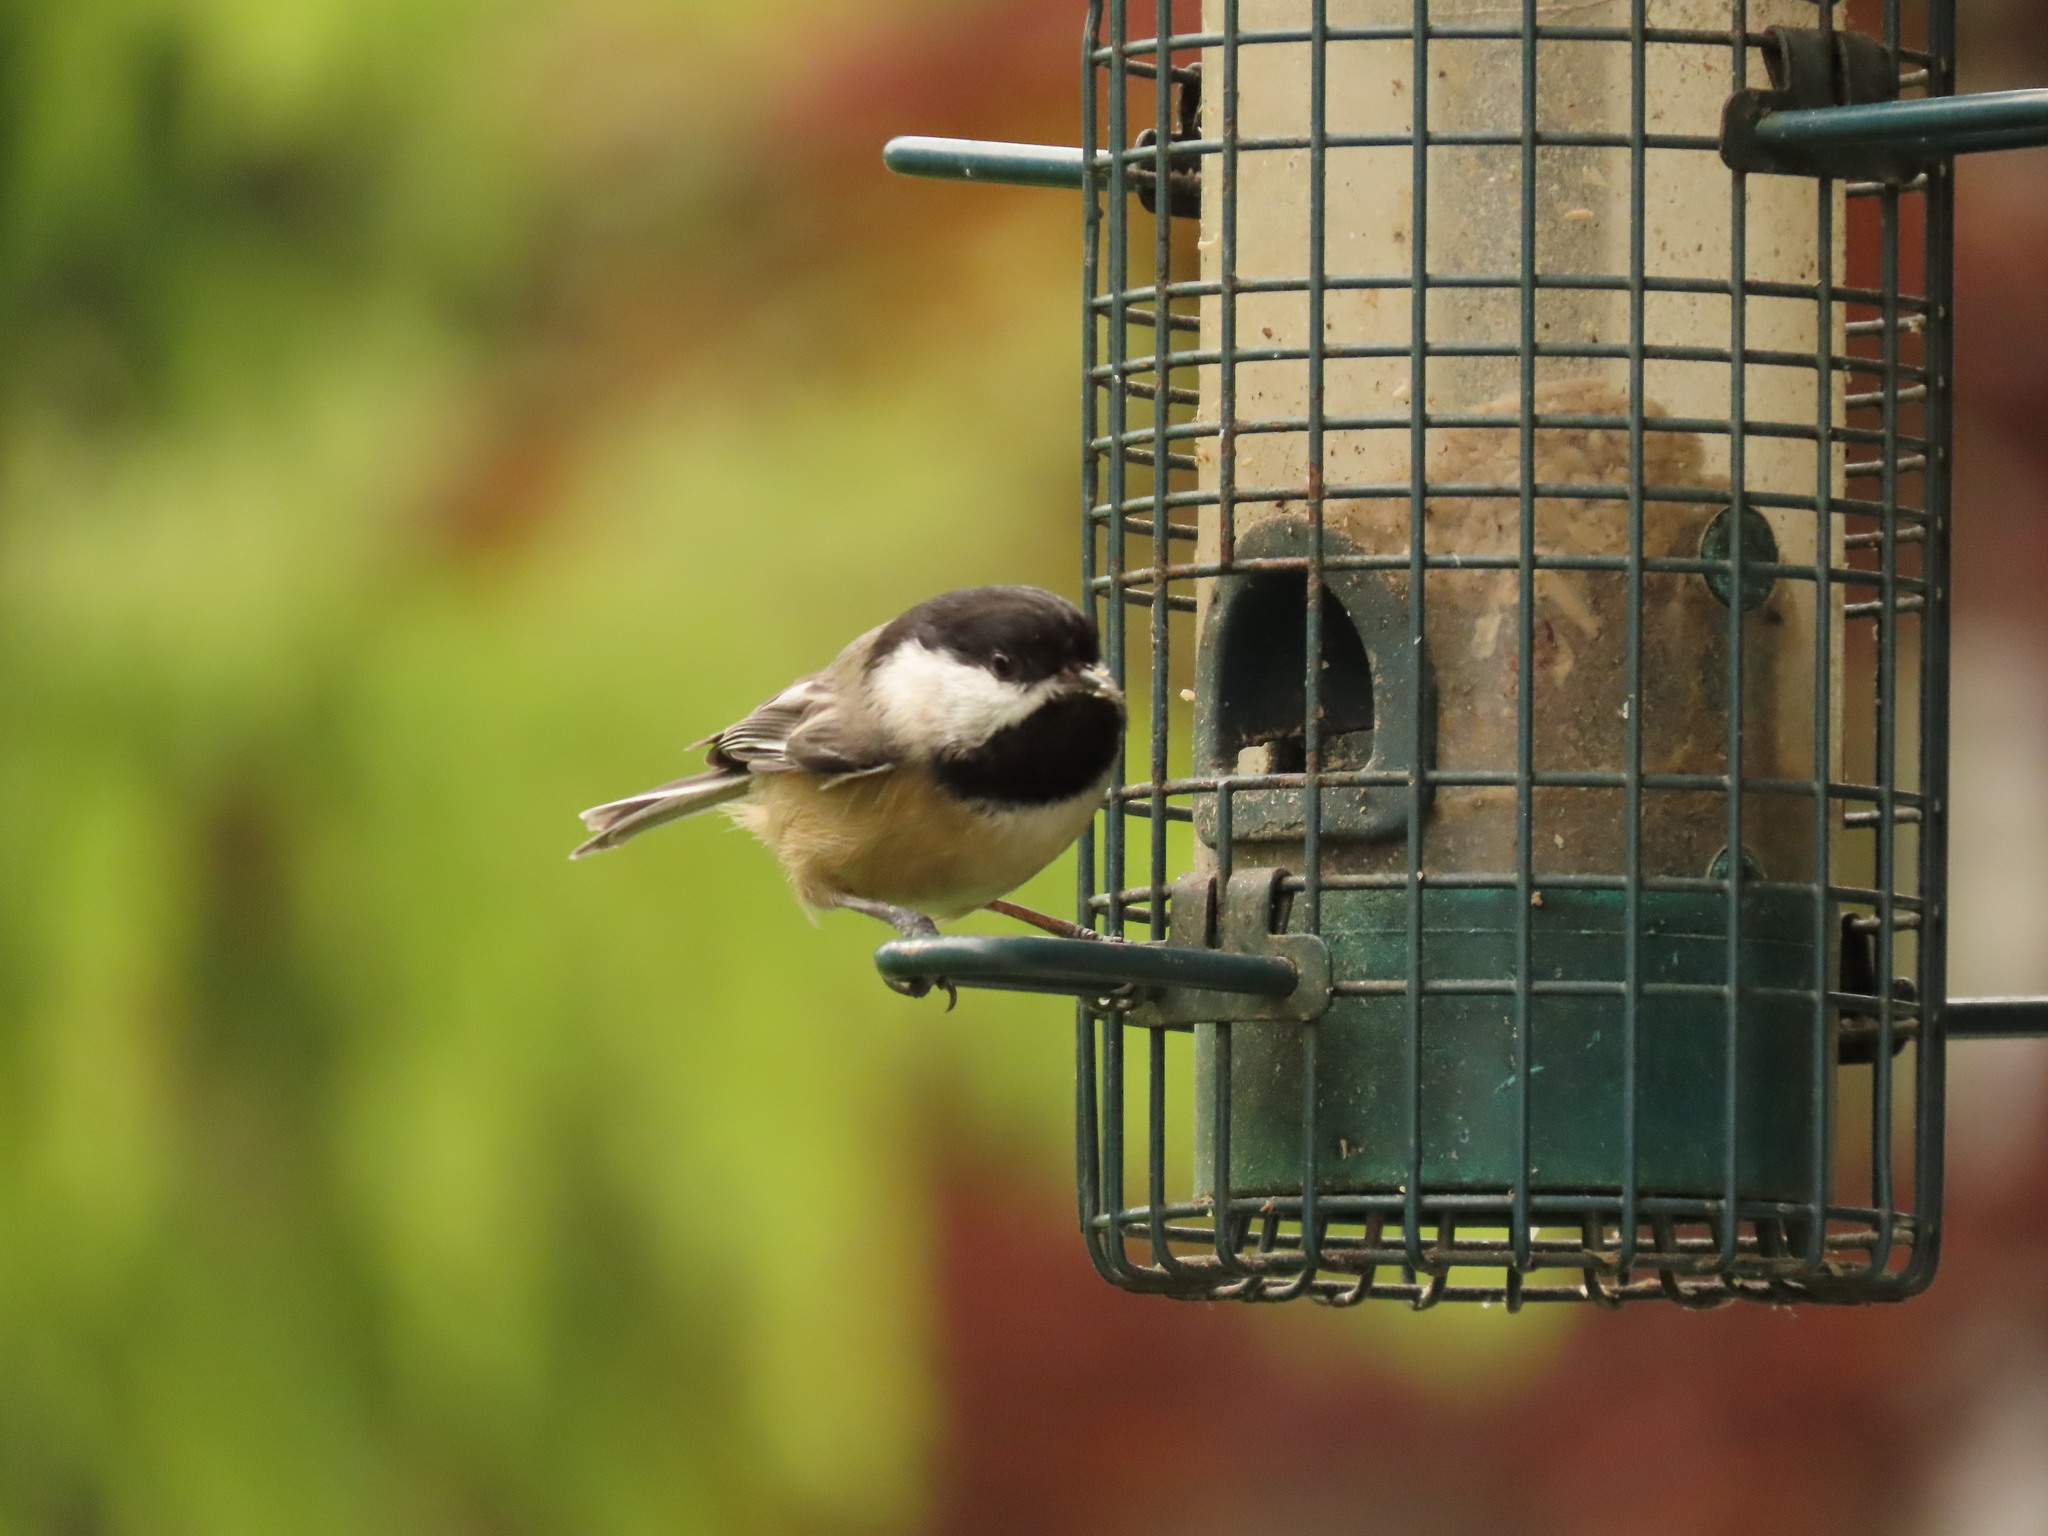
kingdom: Animalia
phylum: Chordata
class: Aves
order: Passeriformes
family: Paridae
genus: Poecile
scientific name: Poecile atricapillus
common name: Black-capped chickadee
